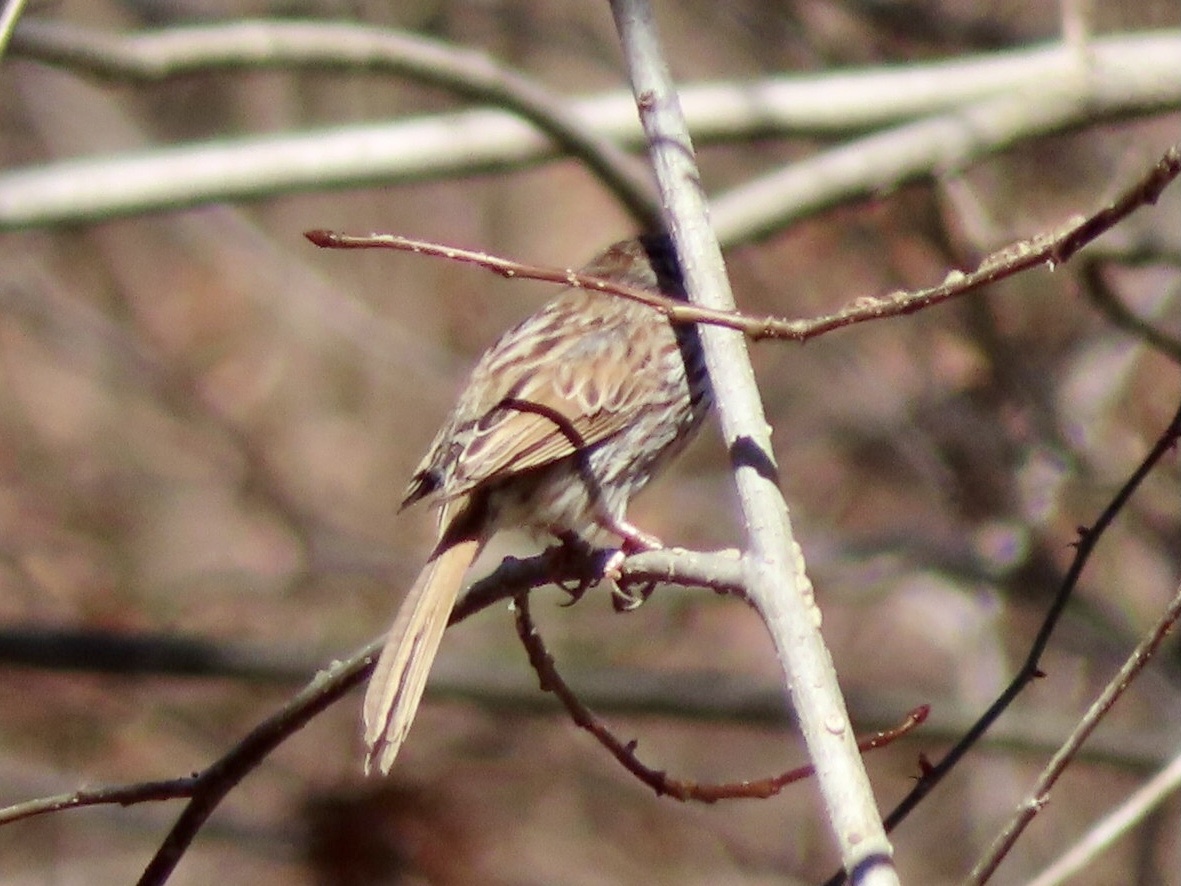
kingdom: Animalia
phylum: Chordata
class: Aves
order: Passeriformes
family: Passerellidae
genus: Melospiza
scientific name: Melospiza melodia
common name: Song sparrow
